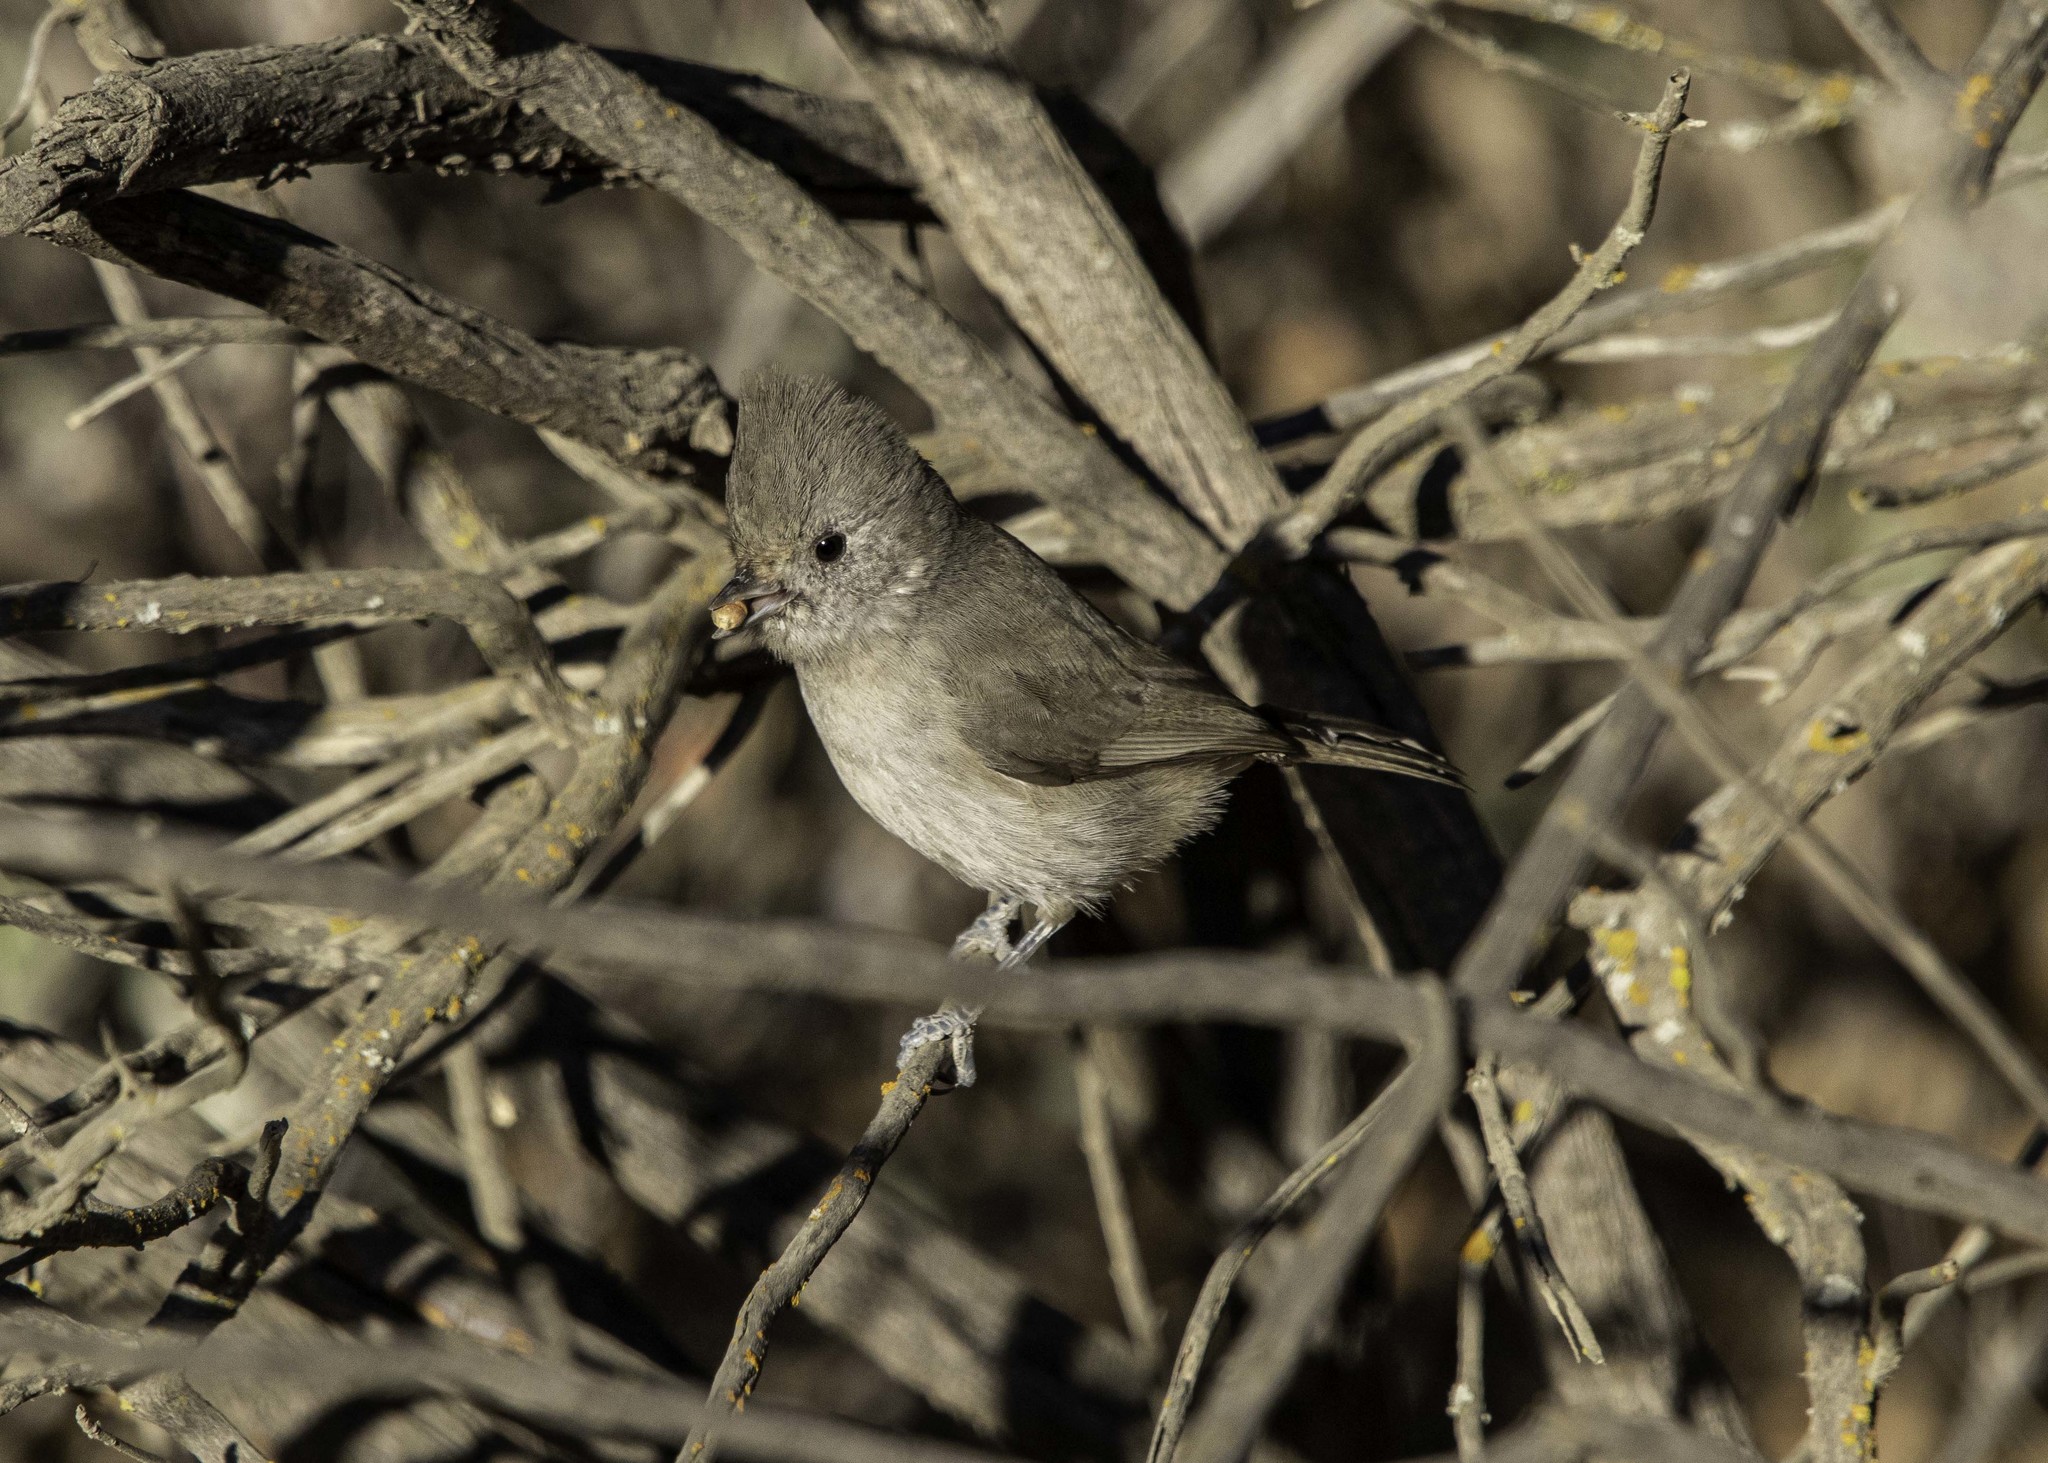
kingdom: Animalia
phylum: Chordata
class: Aves
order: Passeriformes
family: Paridae
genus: Baeolophus
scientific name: Baeolophus inornatus
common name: Oak titmouse
